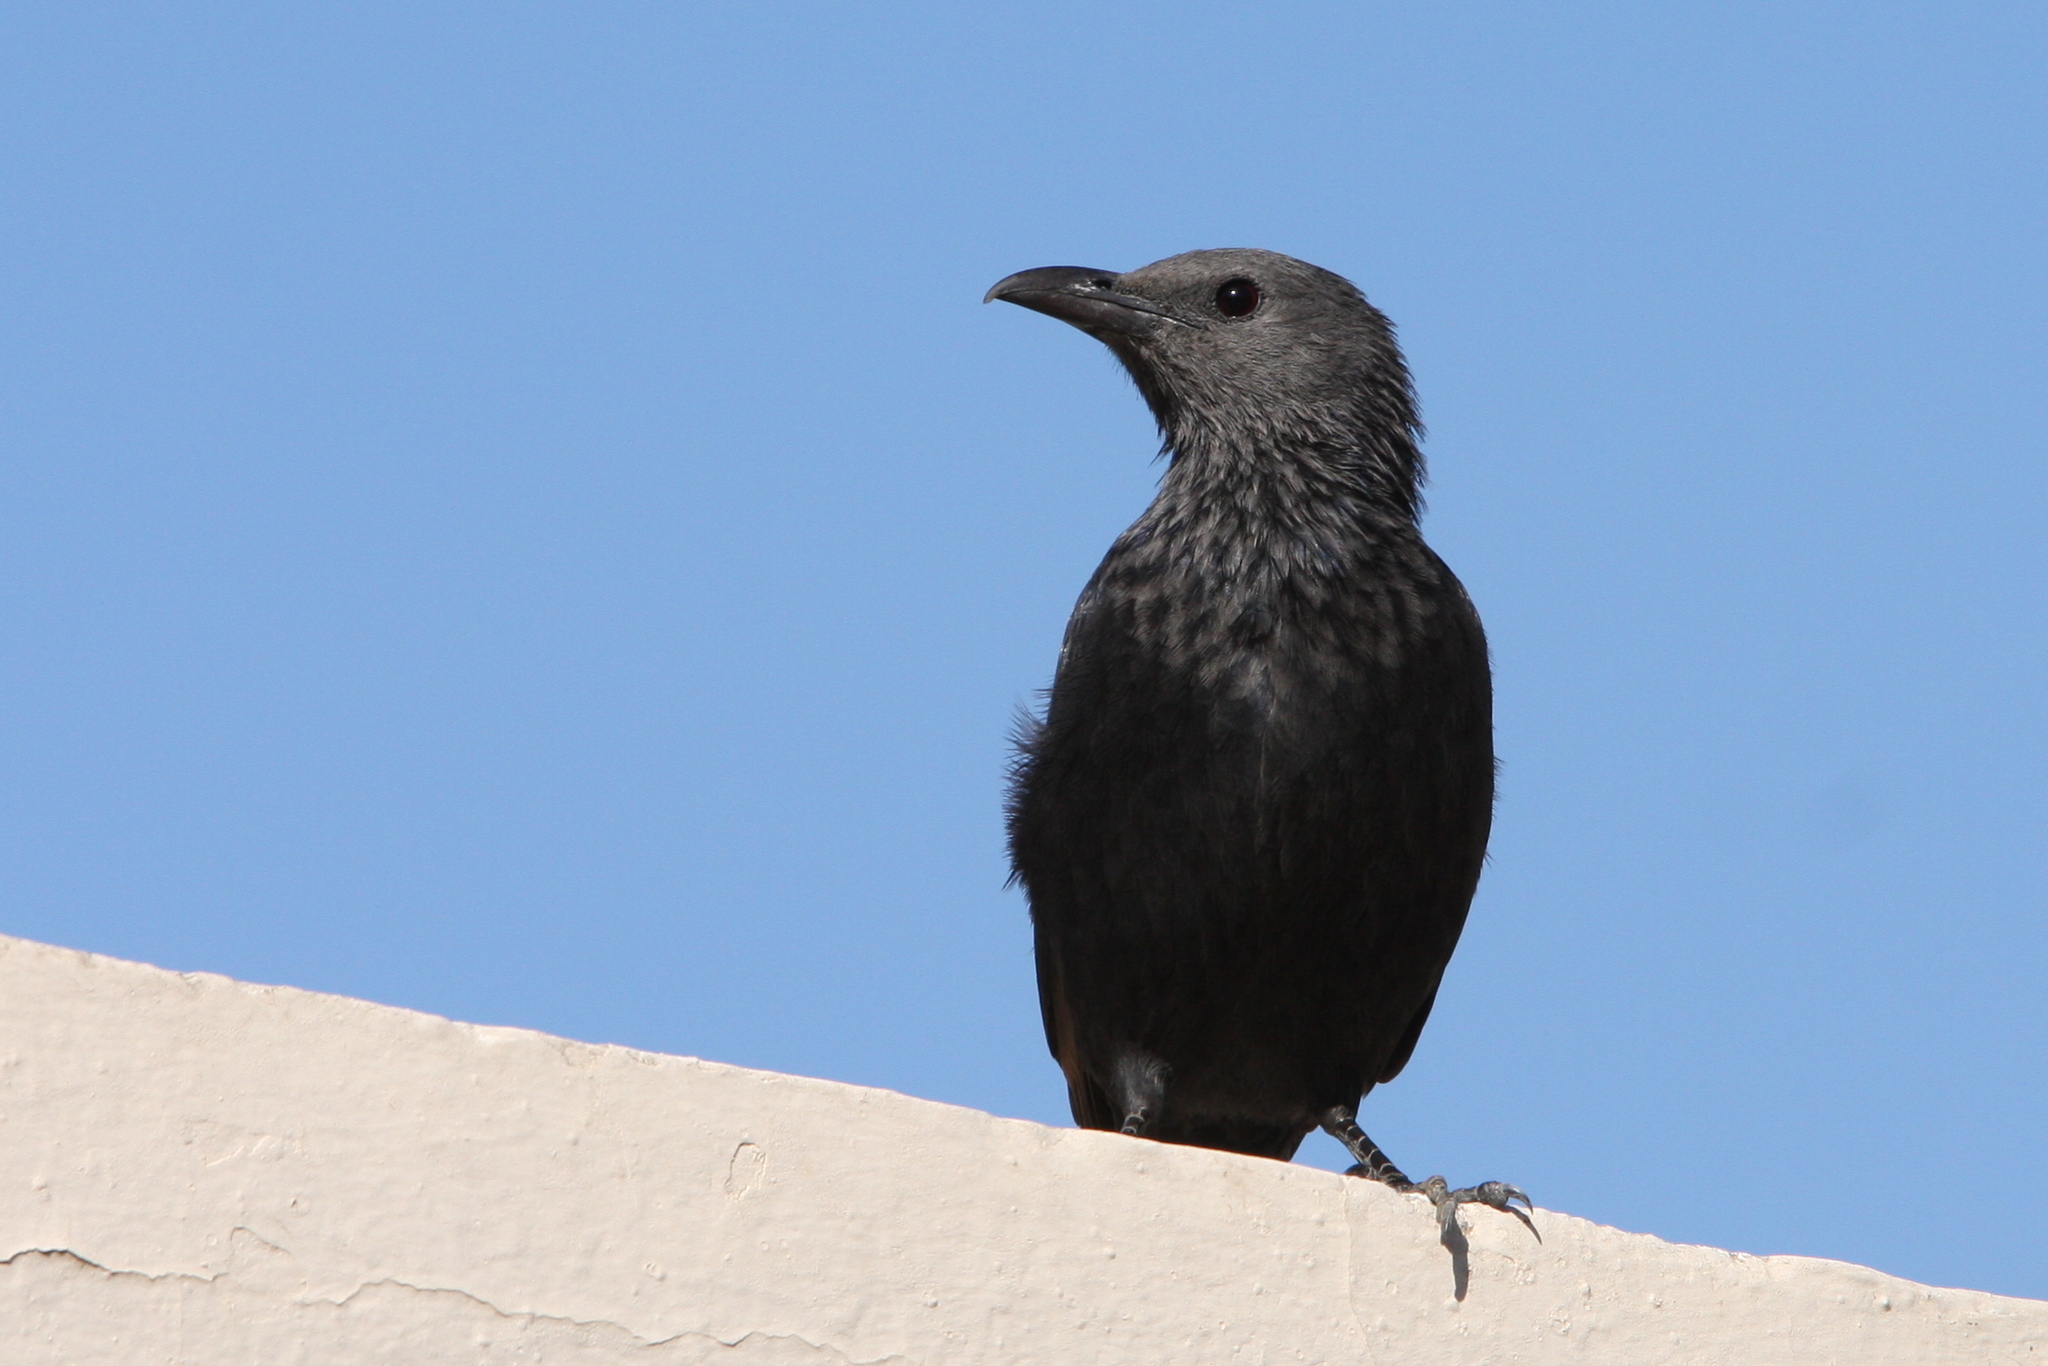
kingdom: Animalia
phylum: Chordata
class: Aves
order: Passeriformes
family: Sturnidae
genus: Onychognathus
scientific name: Onychognathus tristramii
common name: Tristram's starling
